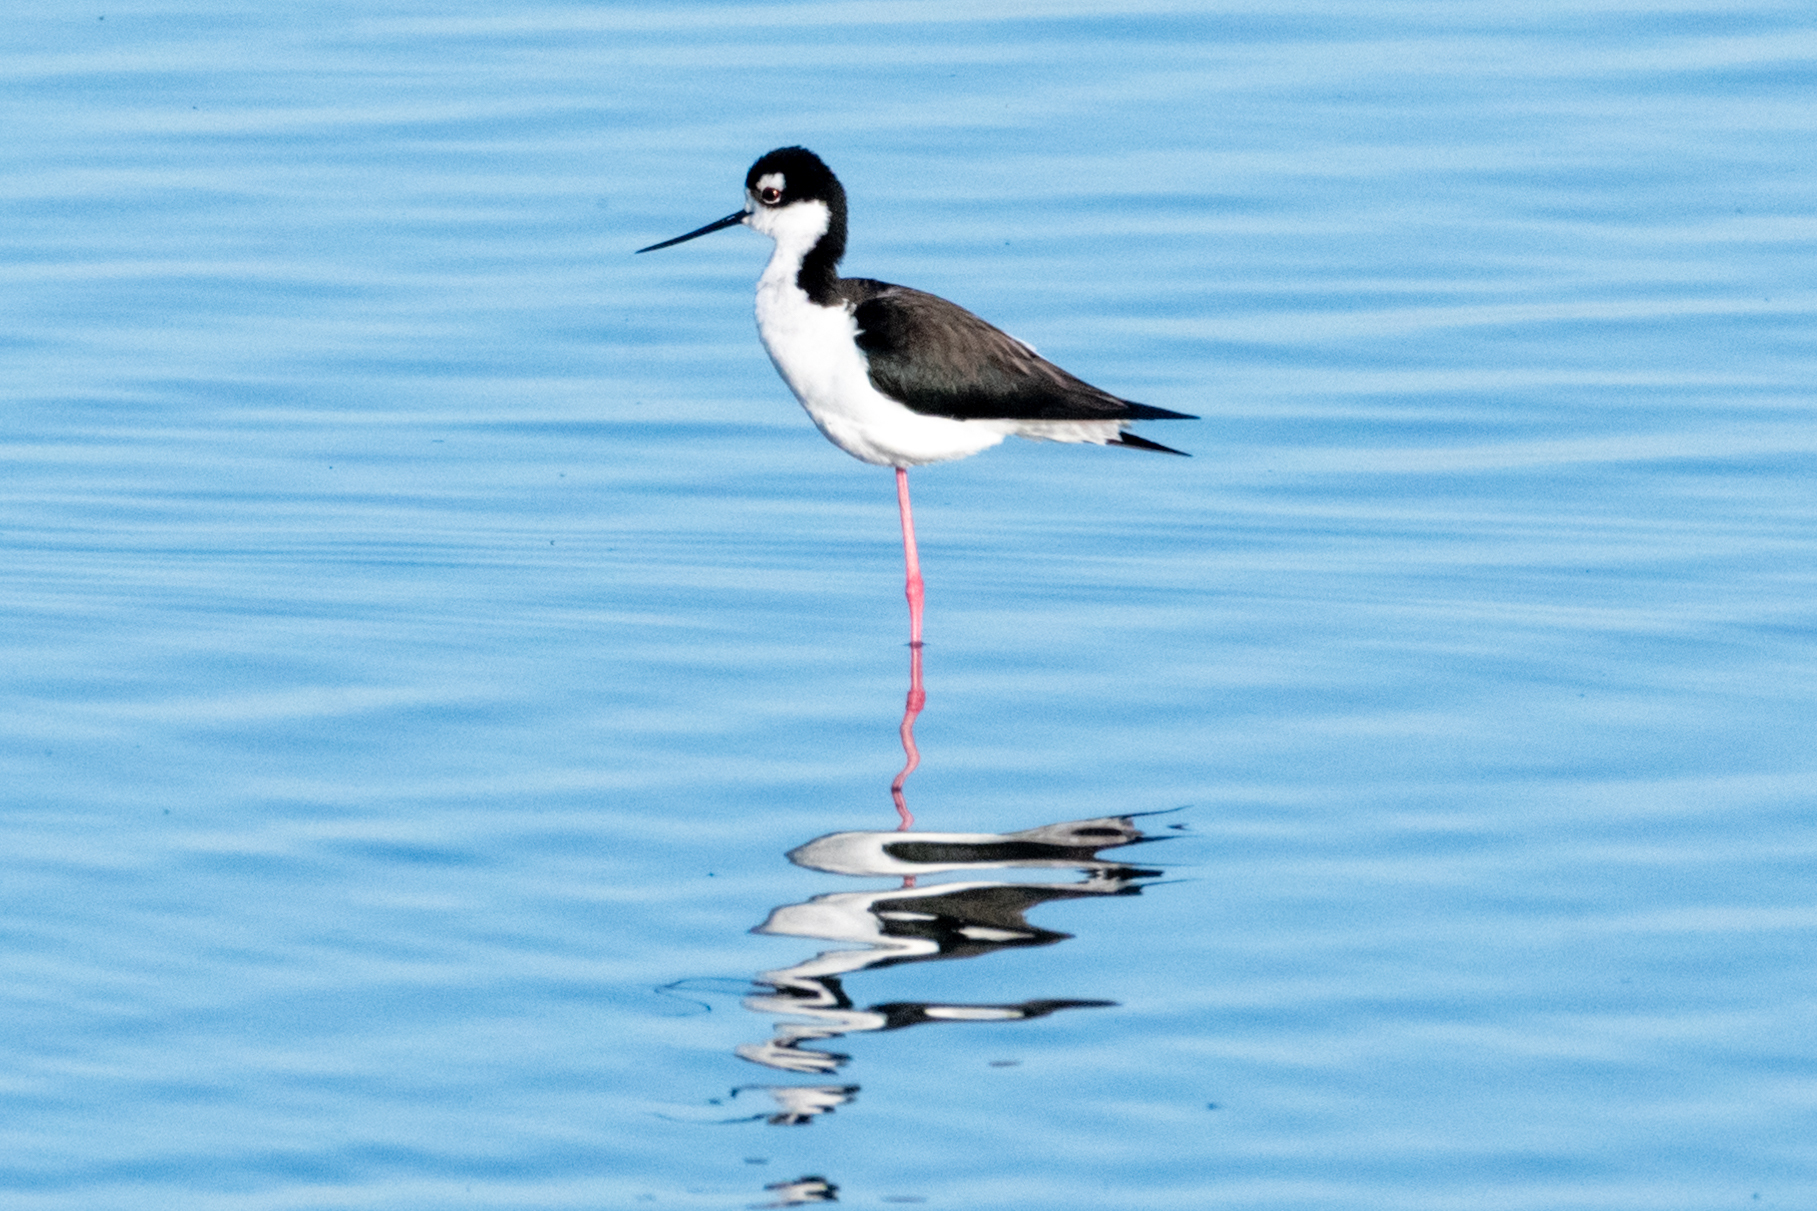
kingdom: Animalia
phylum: Chordata
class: Aves
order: Charadriiformes
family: Recurvirostridae
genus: Himantopus
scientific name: Himantopus mexicanus
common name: Black-necked stilt
